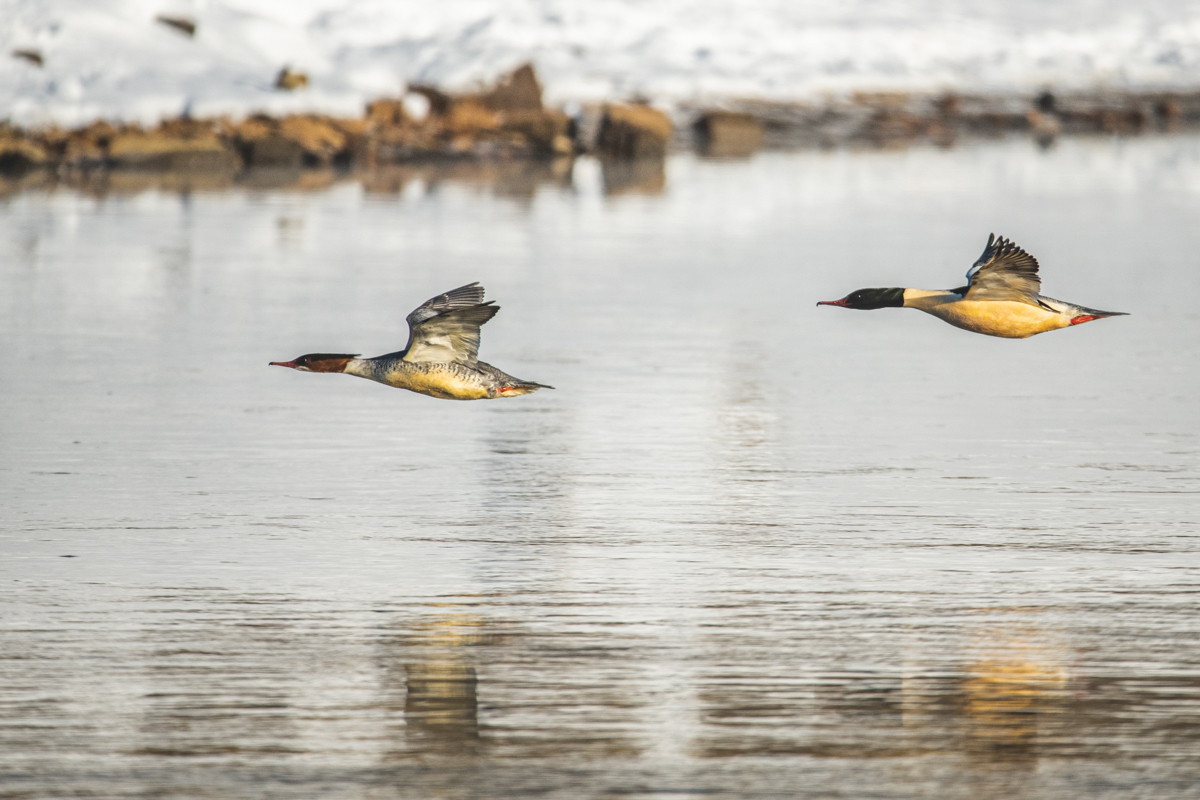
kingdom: Animalia
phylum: Chordata
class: Aves
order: Anseriformes
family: Anatidae
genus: Mergus
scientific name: Mergus merganser
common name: Common merganser
